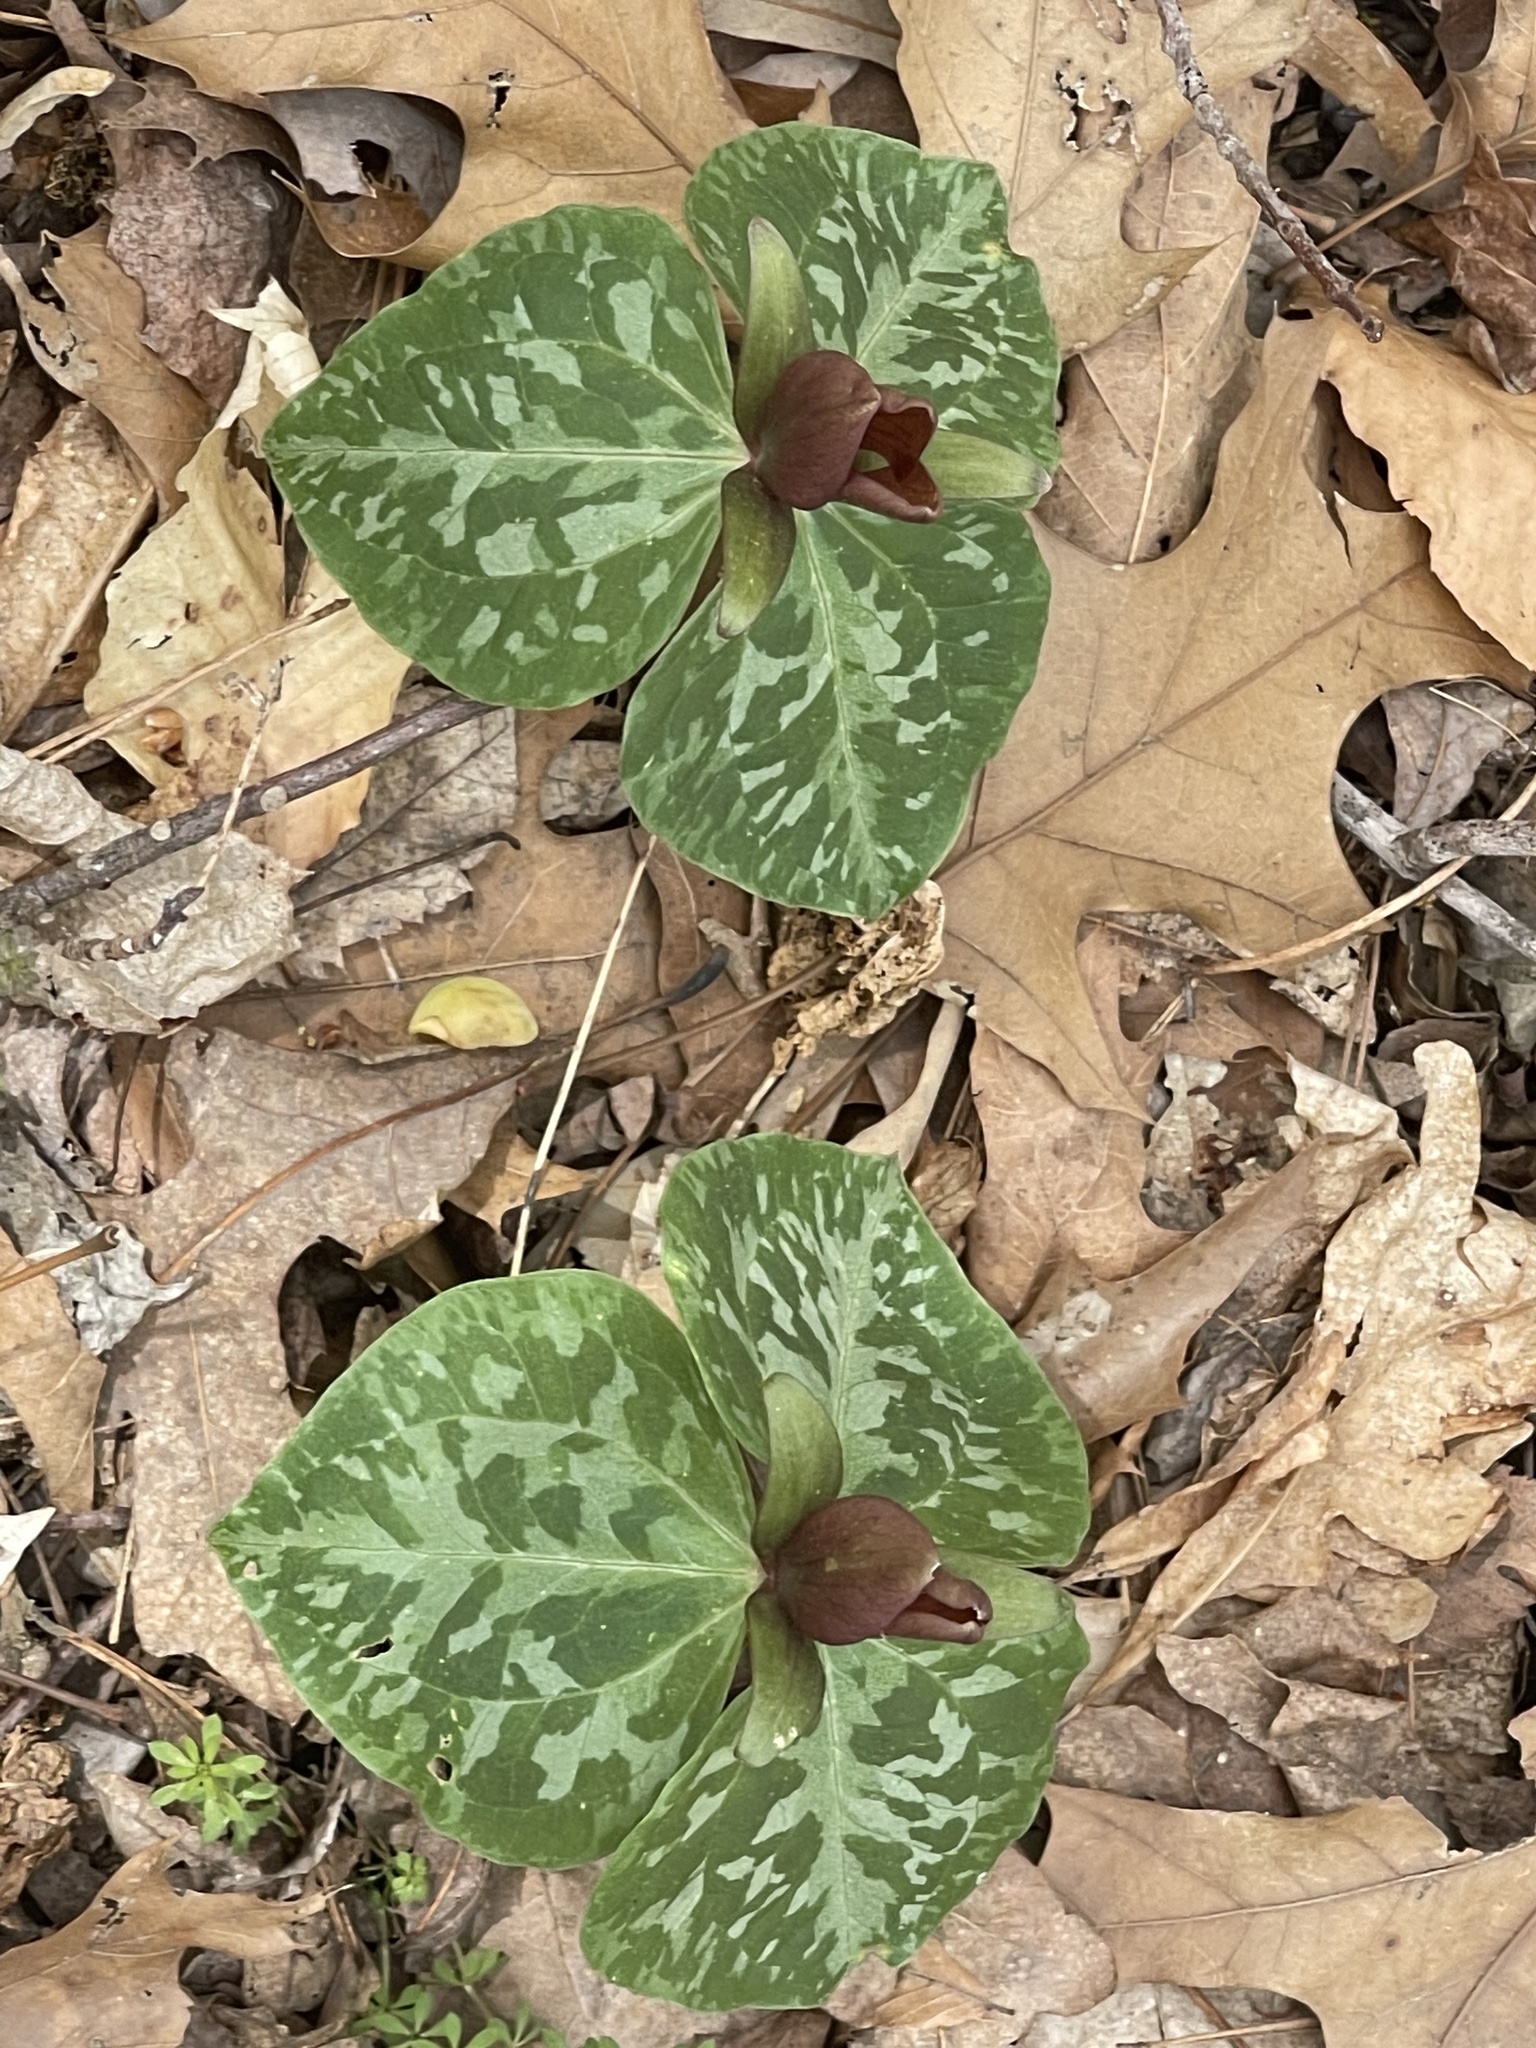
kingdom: Plantae
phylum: Tracheophyta
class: Liliopsida
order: Liliales
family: Melanthiaceae
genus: Trillium
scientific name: Trillium cuneatum
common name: Cuneate trillium
